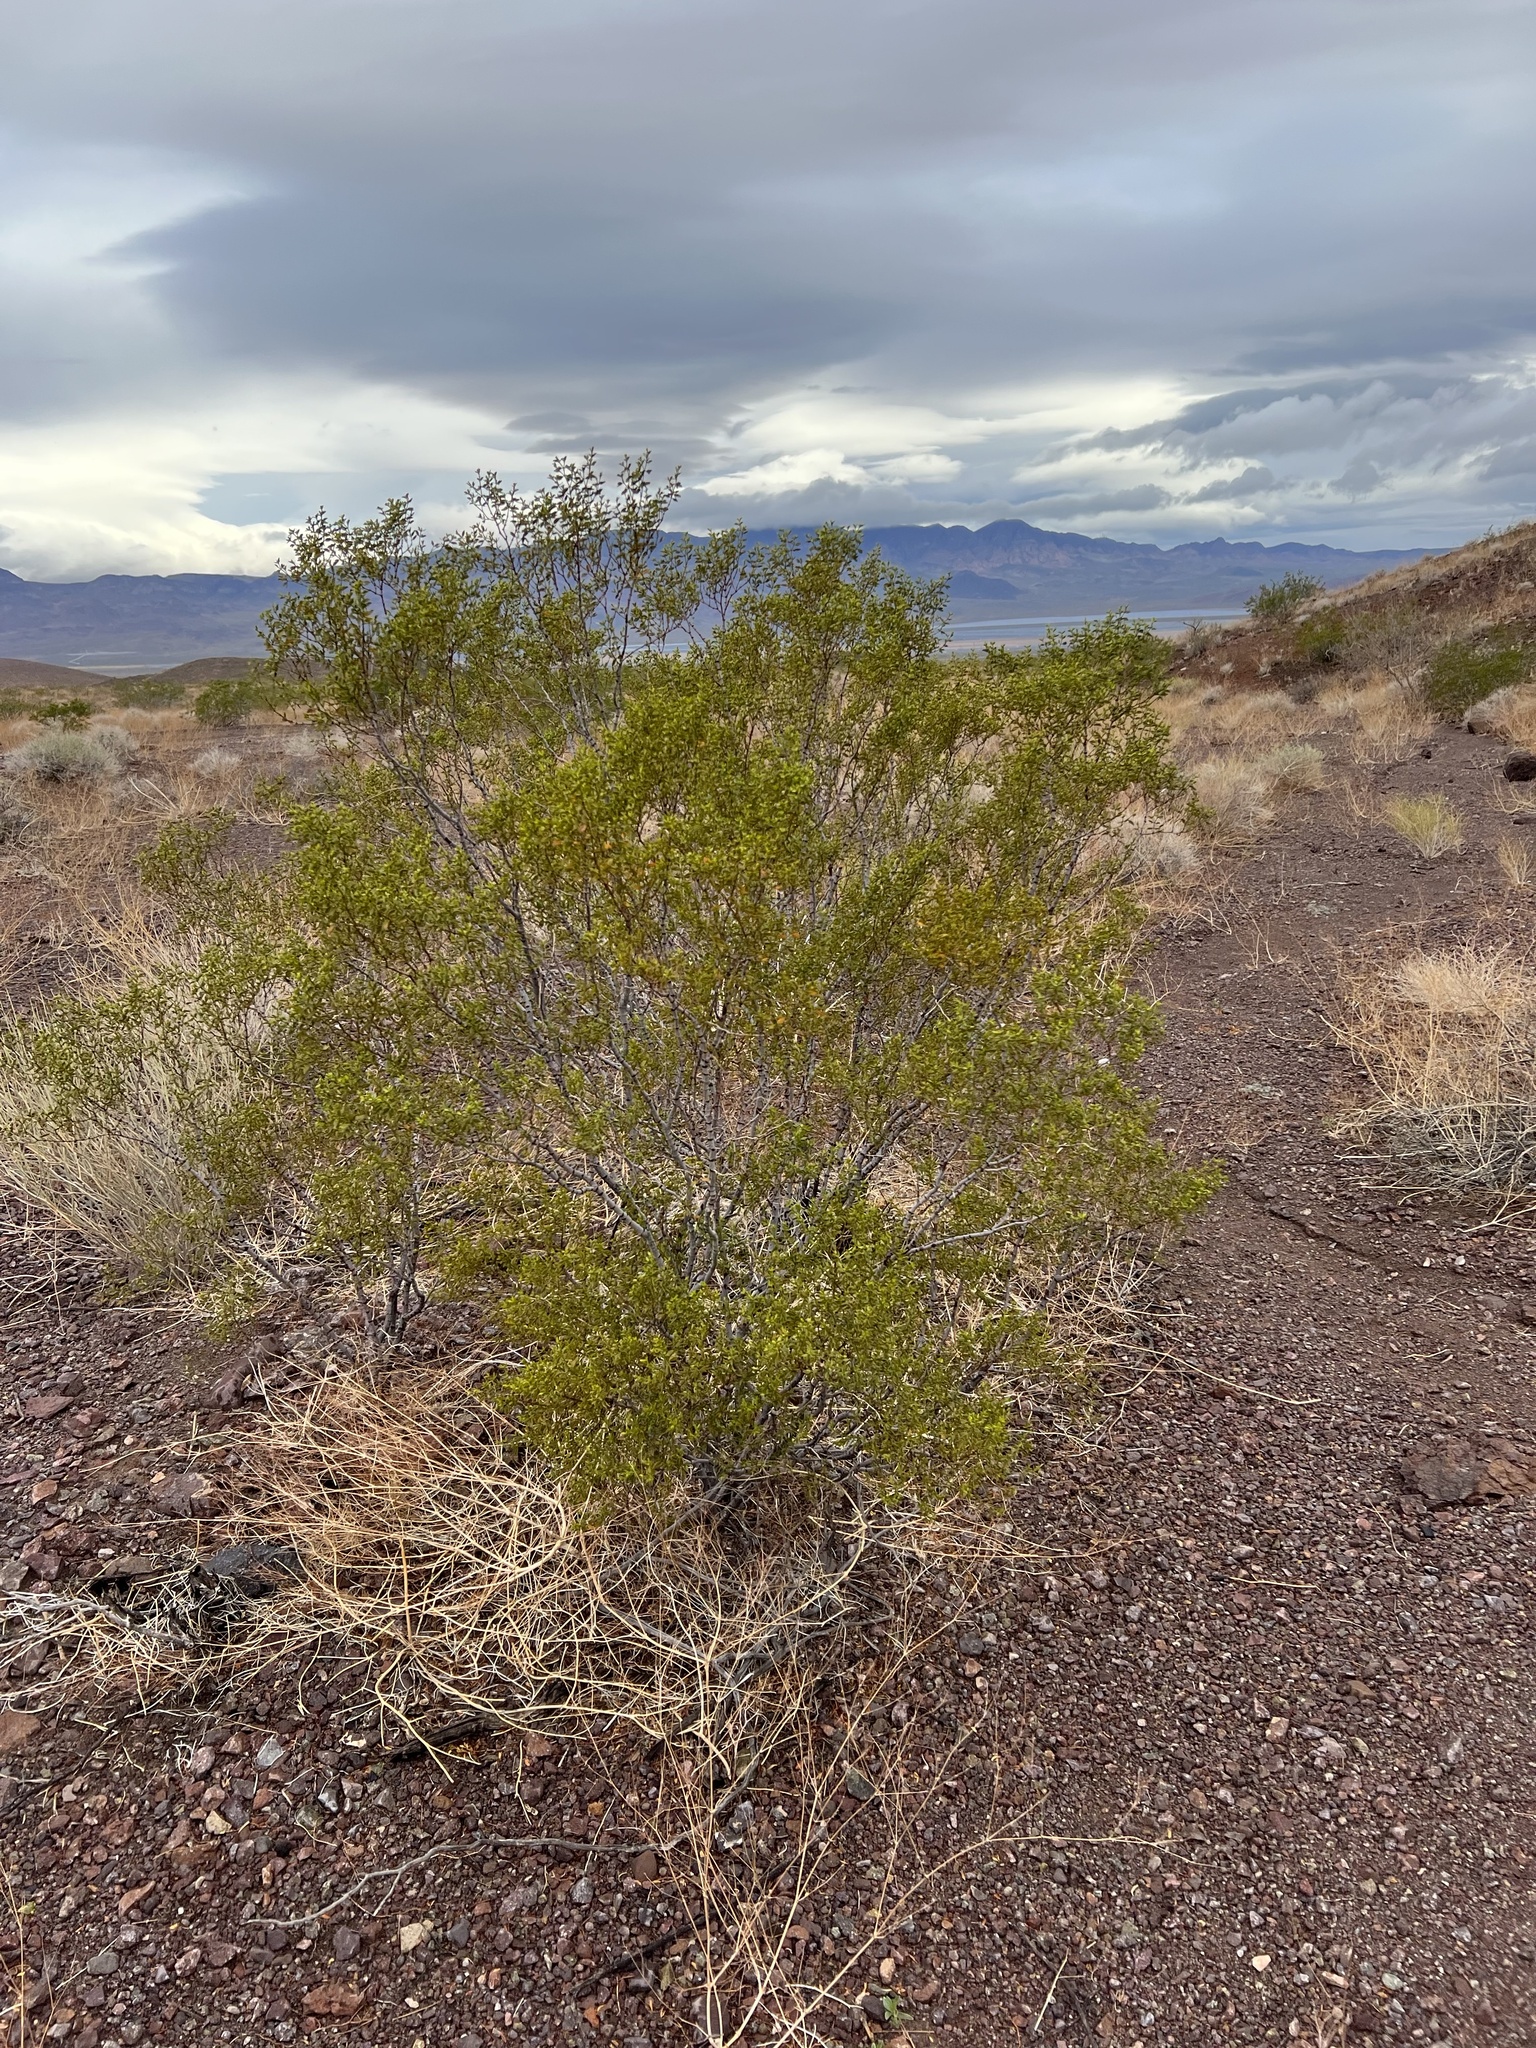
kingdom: Plantae
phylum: Tracheophyta
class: Magnoliopsida
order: Zygophyllales
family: Zygophyllaceae
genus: Larrea
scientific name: Larrea tridentata
